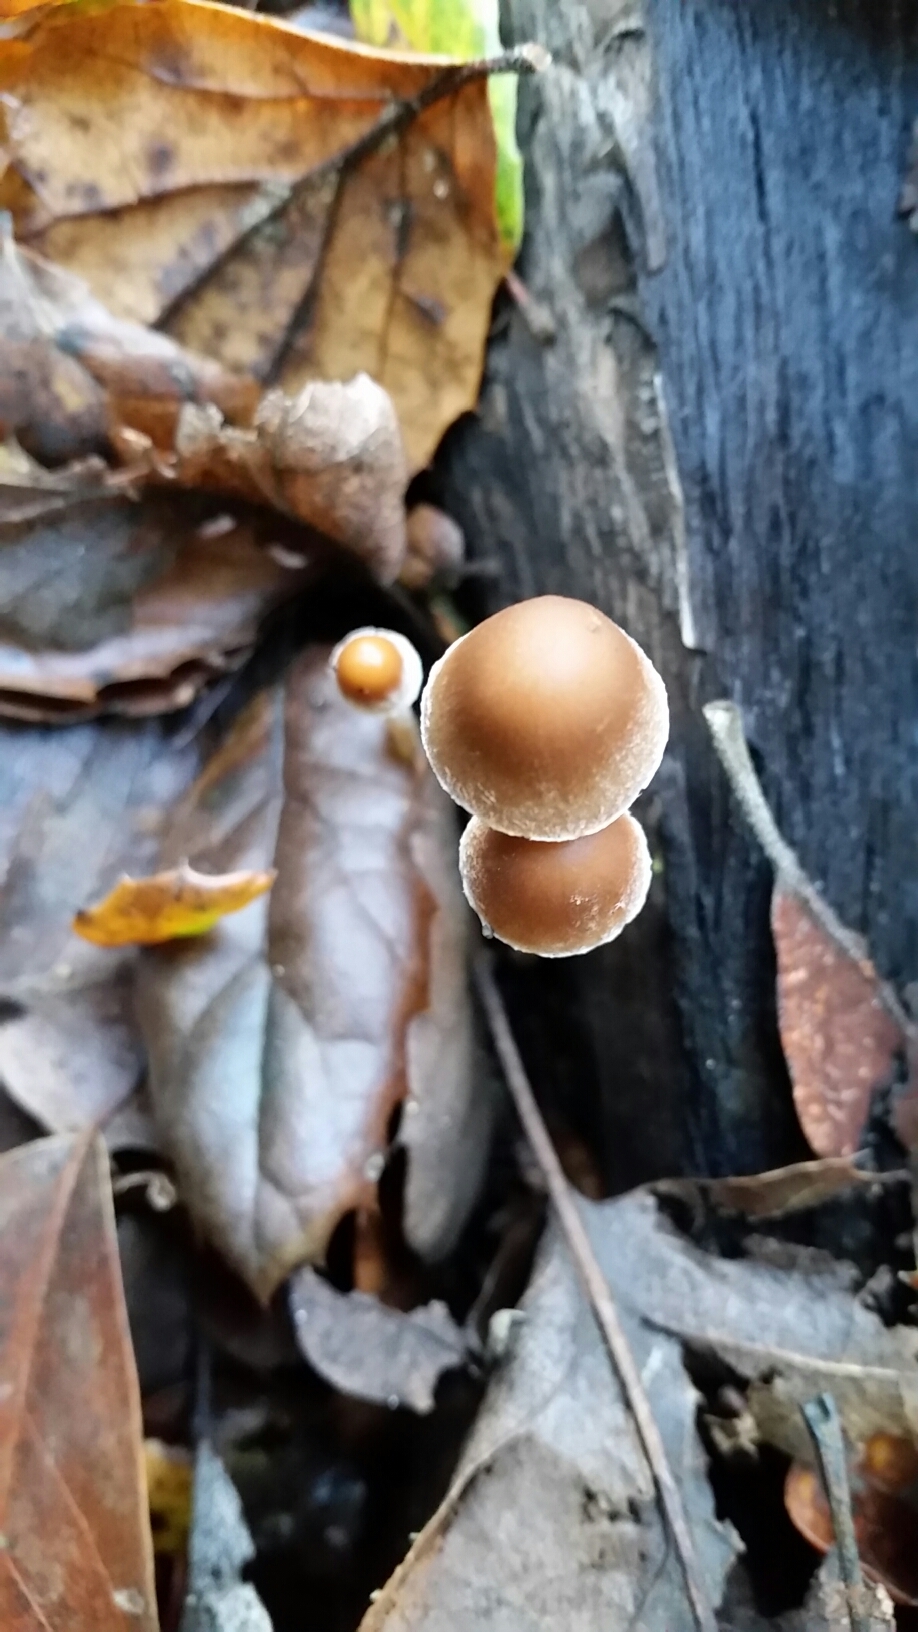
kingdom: Fungi
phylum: Basidiomycota
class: Agaricomycetes
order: Agaricales
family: Psathyrellaceae
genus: Psathyrella
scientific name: Psathyrella longipes
